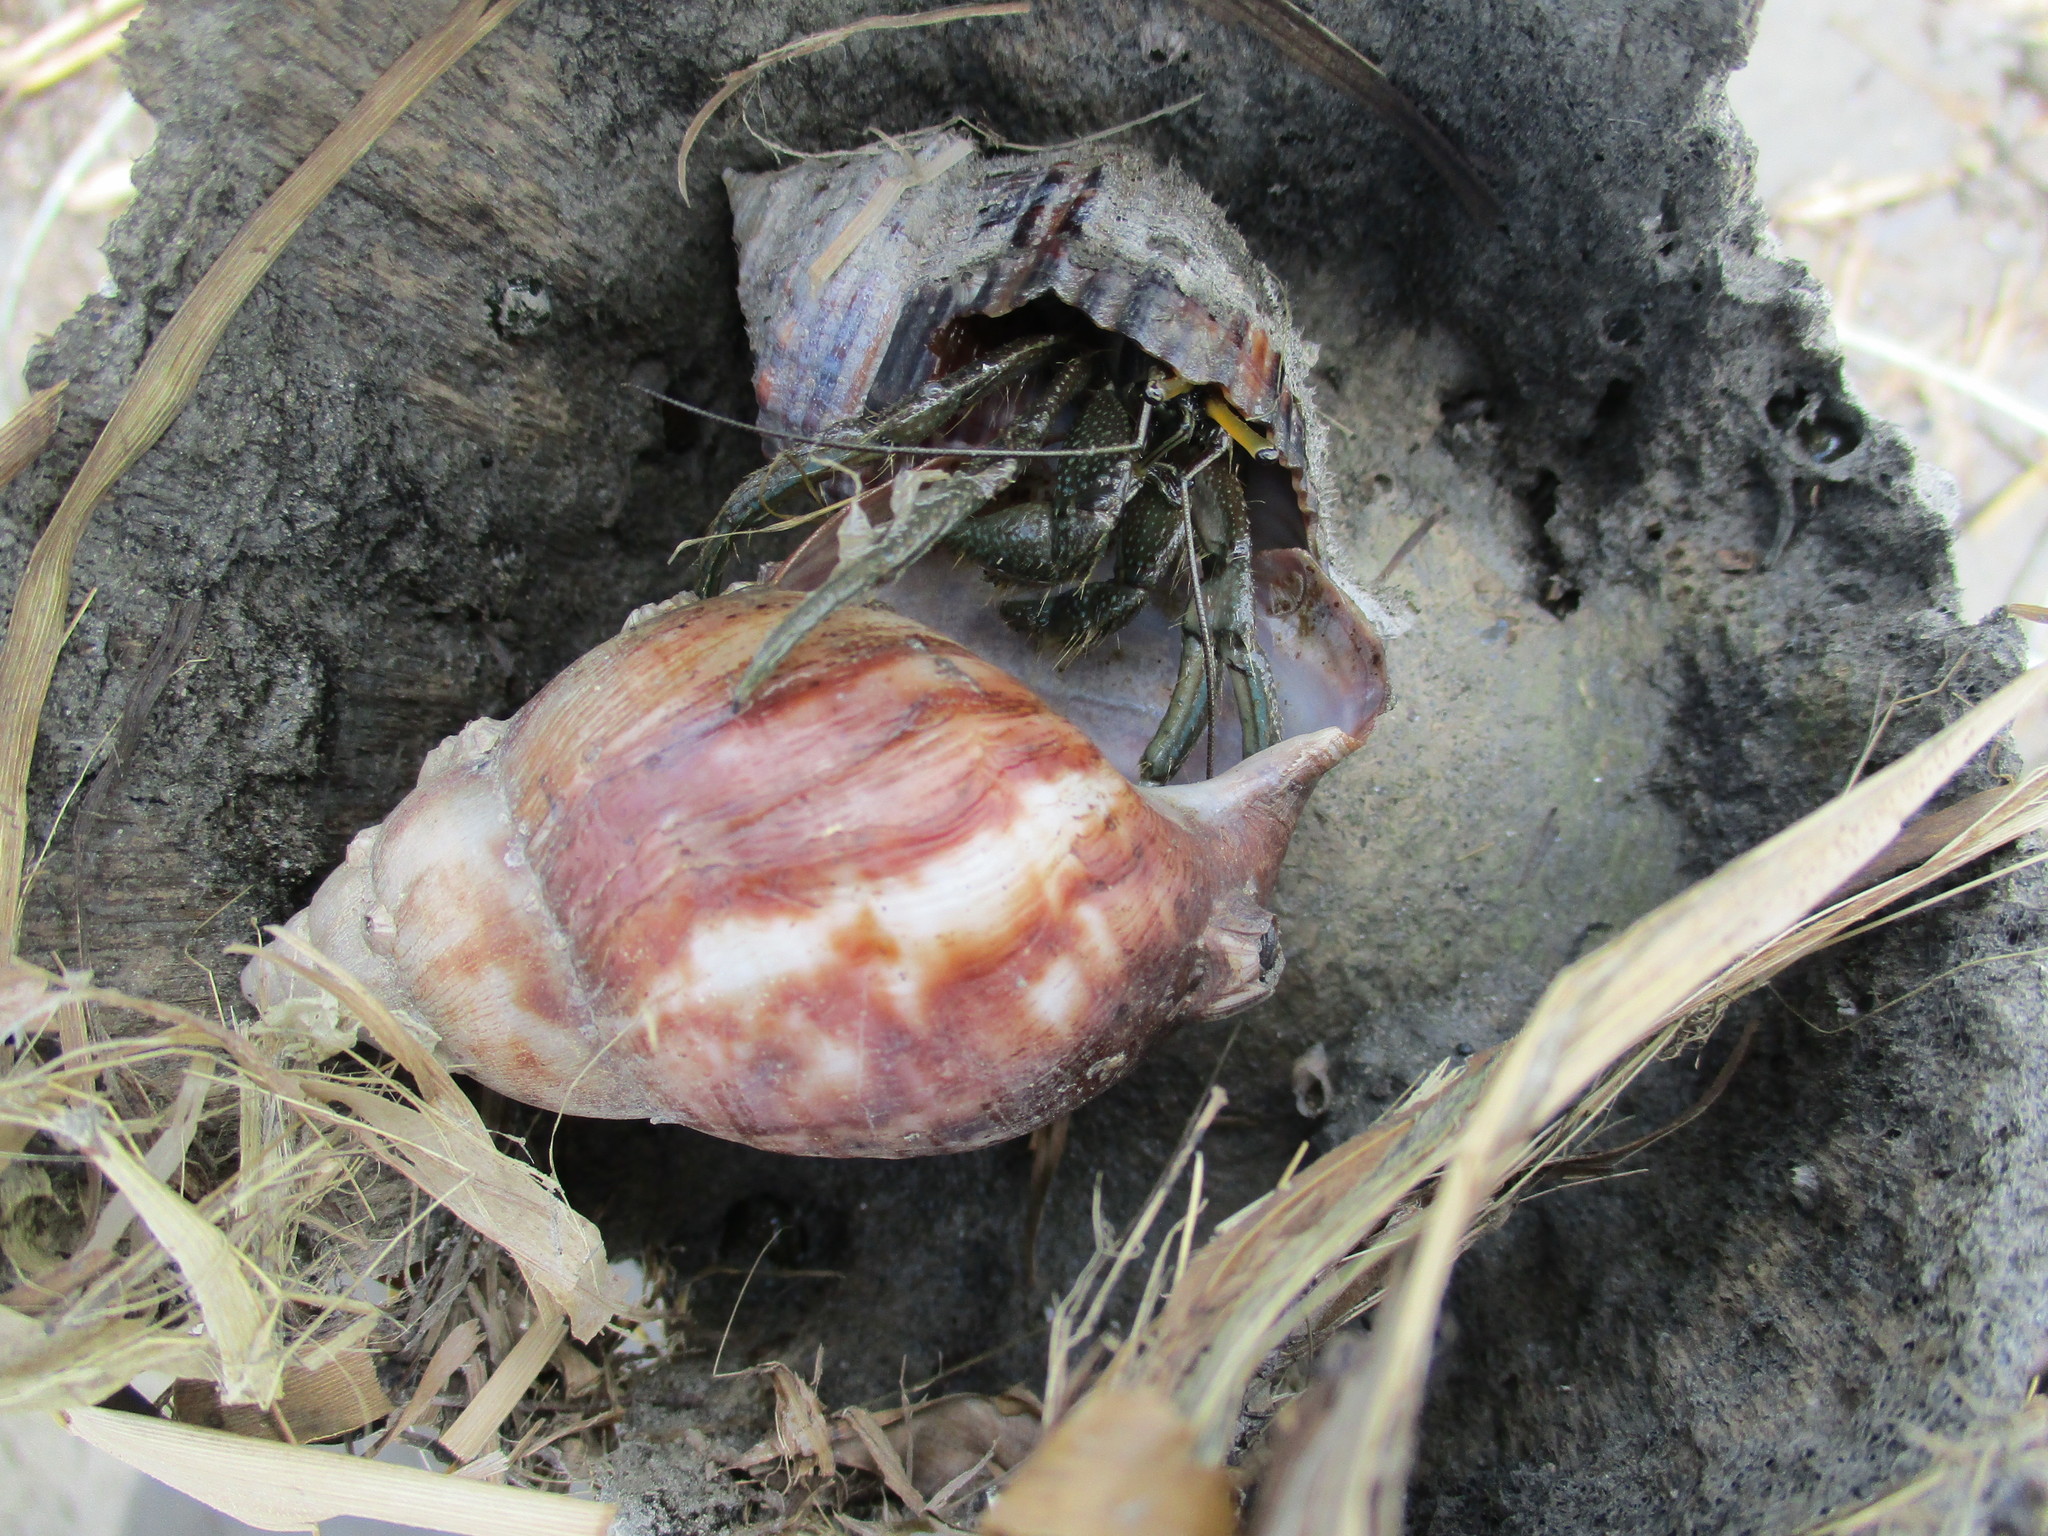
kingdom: Animalia
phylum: Arthropoda
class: Malacostraca
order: Decapoda
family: Diogenidae
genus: Clibanarius
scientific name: Clibanarius longitarsus
